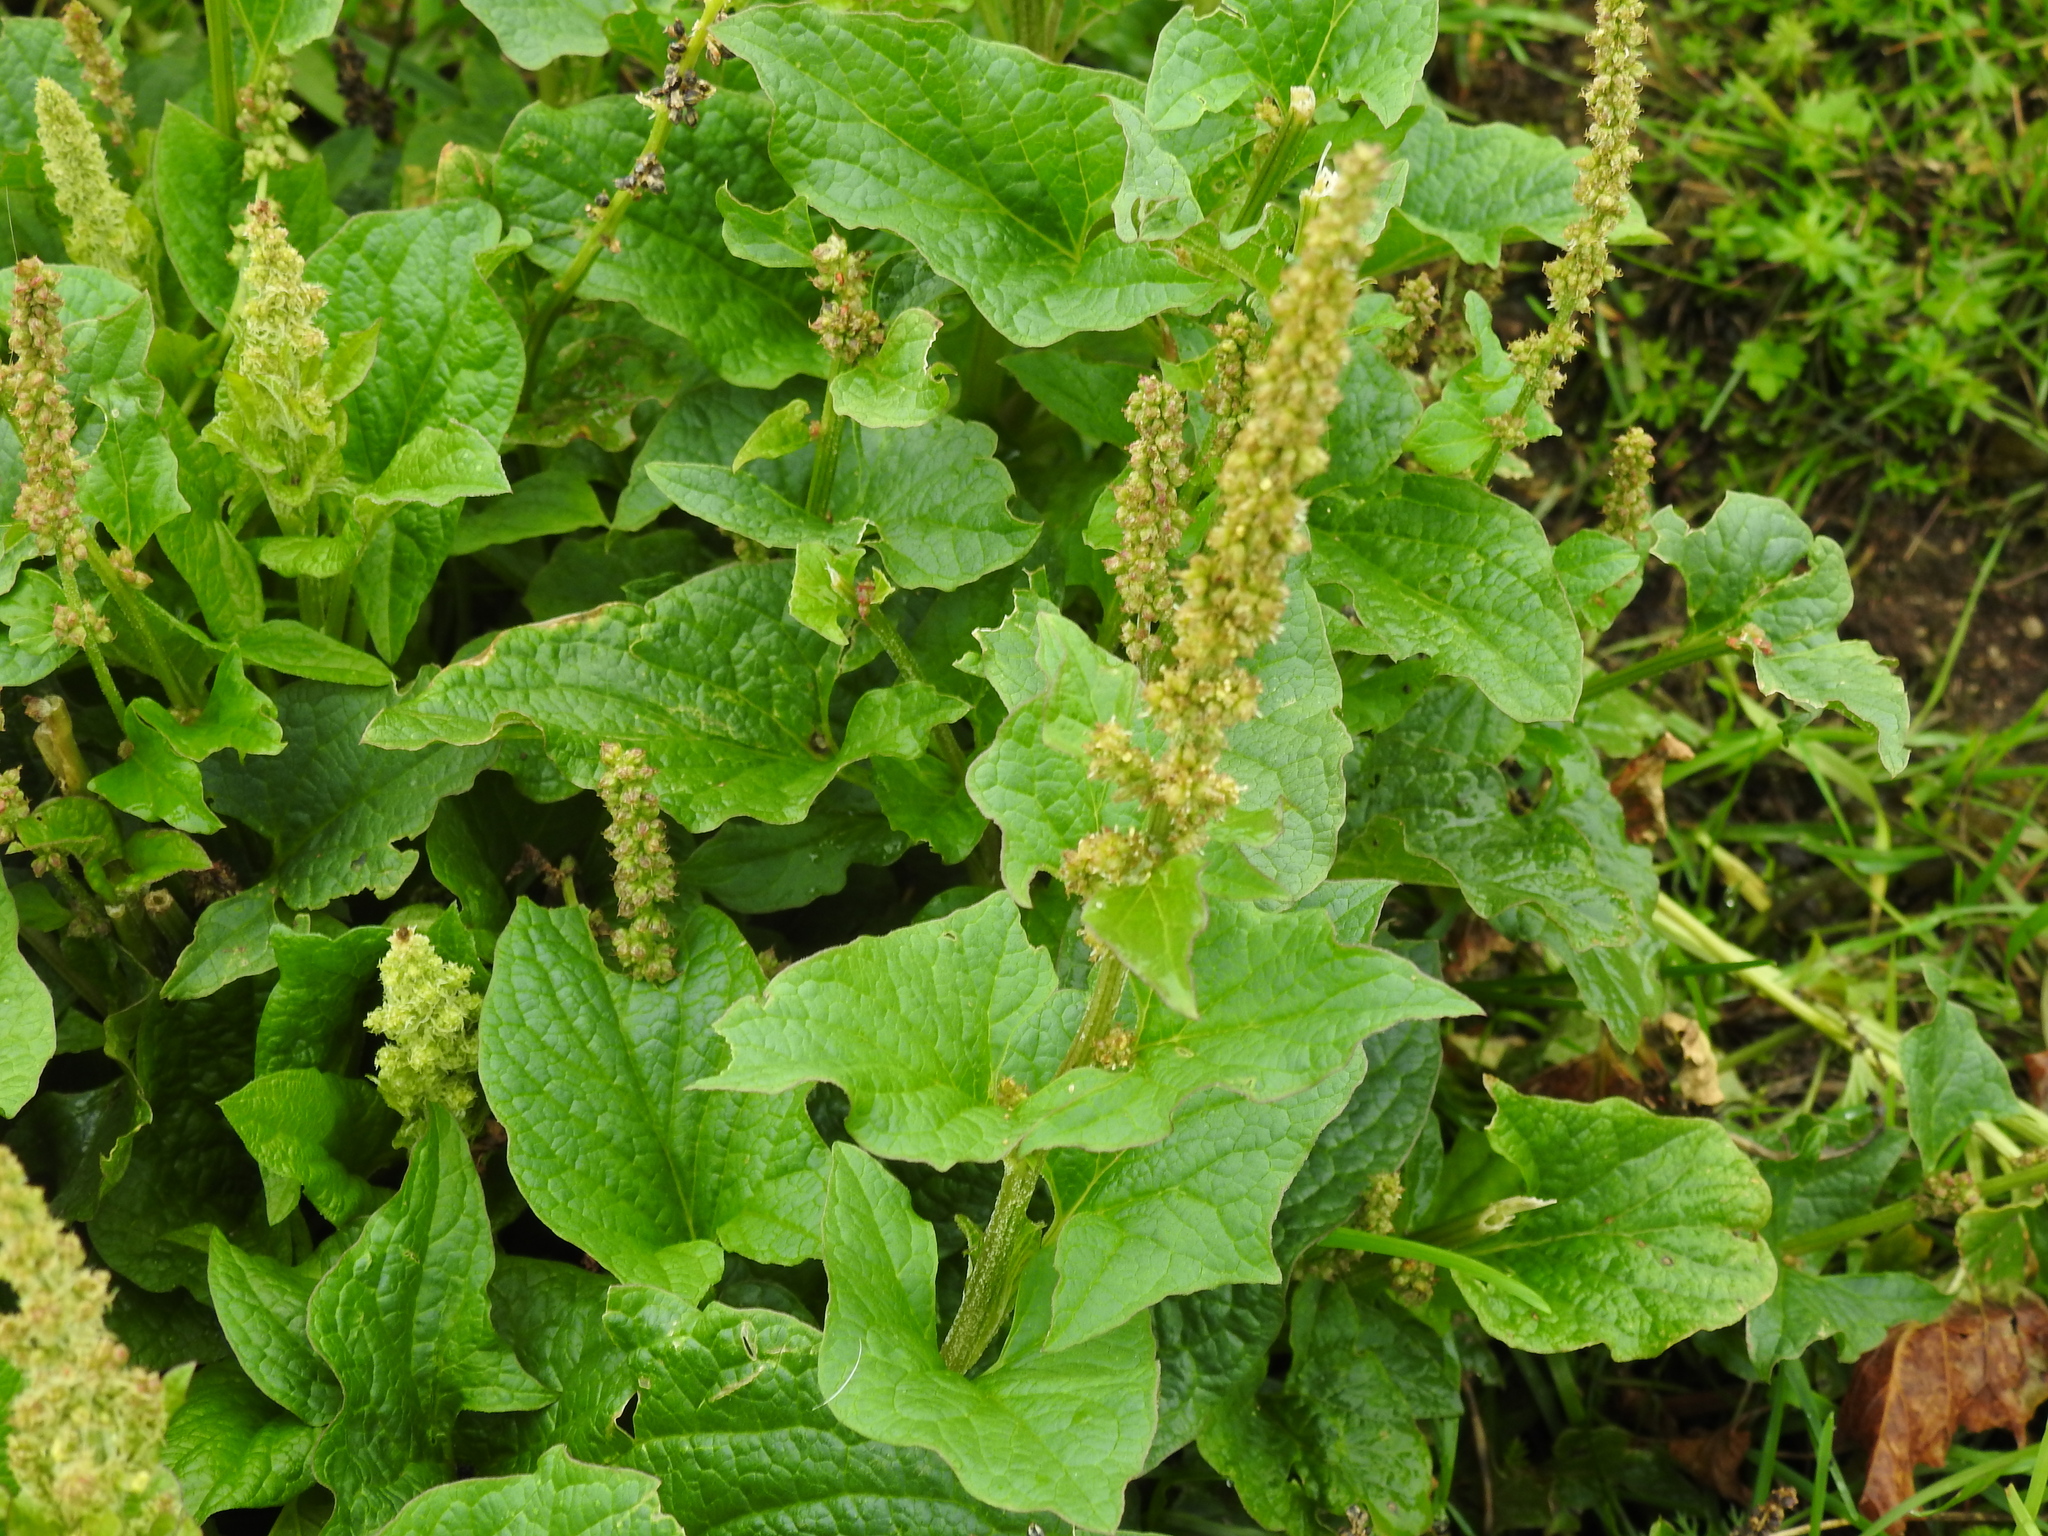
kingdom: Plantae
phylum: Tracheophyta
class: Magnoliopsida
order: Caryophyllales
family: Amaranthaceae
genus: Blitum
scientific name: Blitum bonus-henricus
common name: Good king henry
